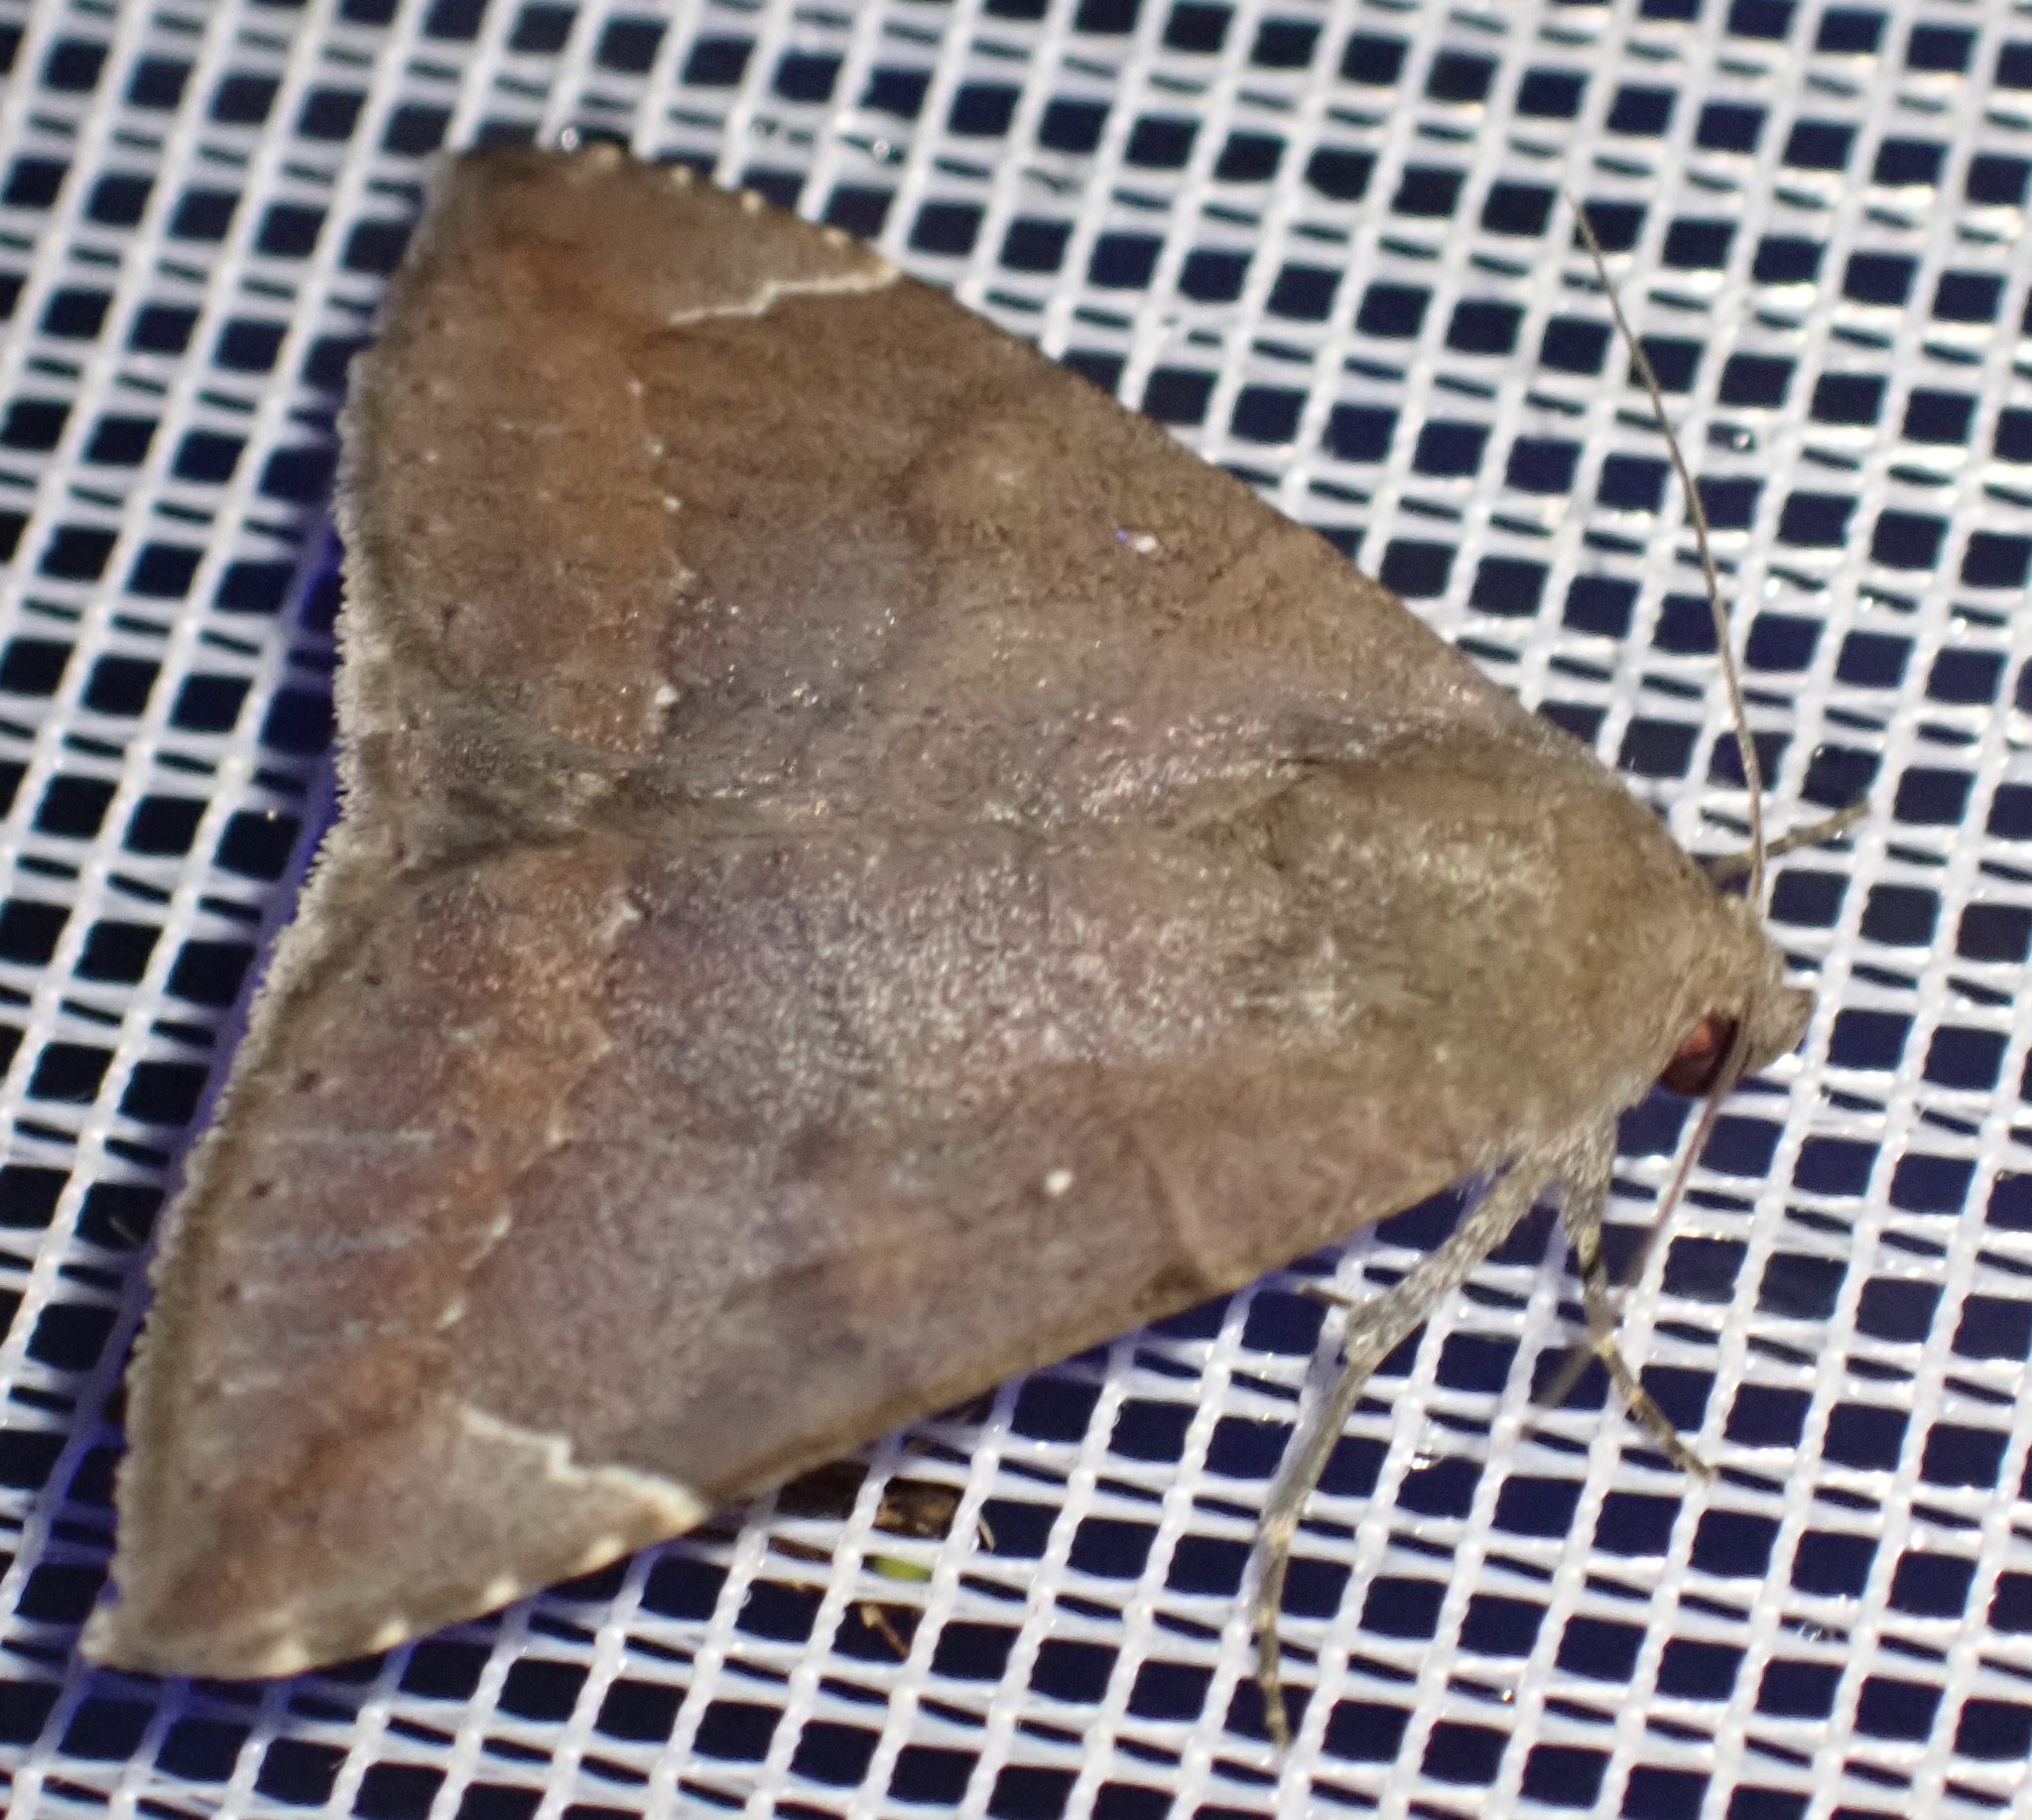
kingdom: Animalia
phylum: Arthropoda
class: Insecta
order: Lepidoptera
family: Erebidae
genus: Parallelia
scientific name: Parallelia insignifica
